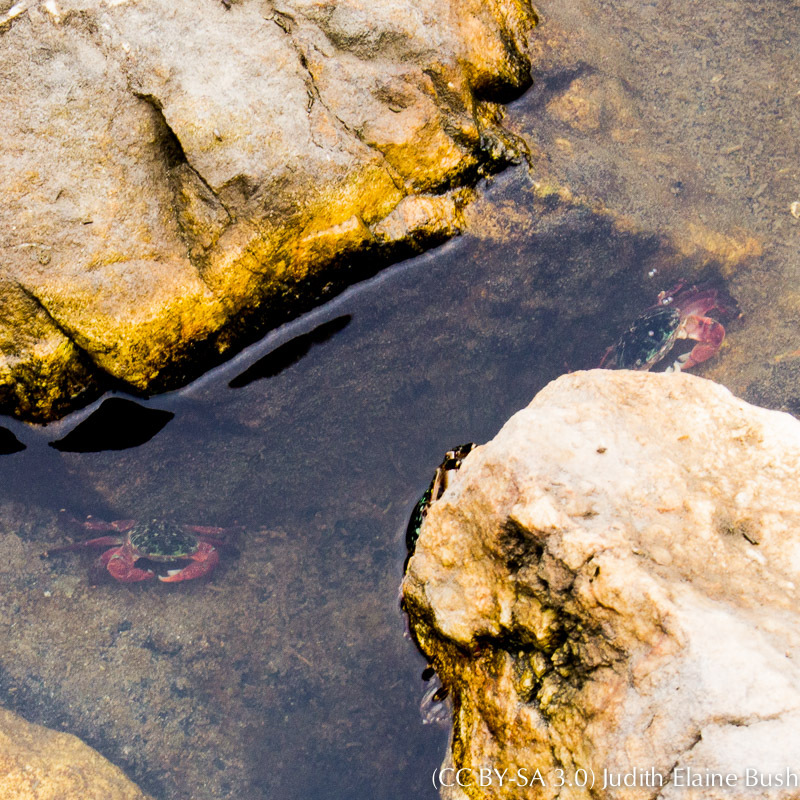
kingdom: Animalia
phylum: Arthropoda
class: Malacostraca
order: Decapoda
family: Grapsidae
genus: Pachygrapsus
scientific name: Pachygrapsus crassipes
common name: Striped shore crab
